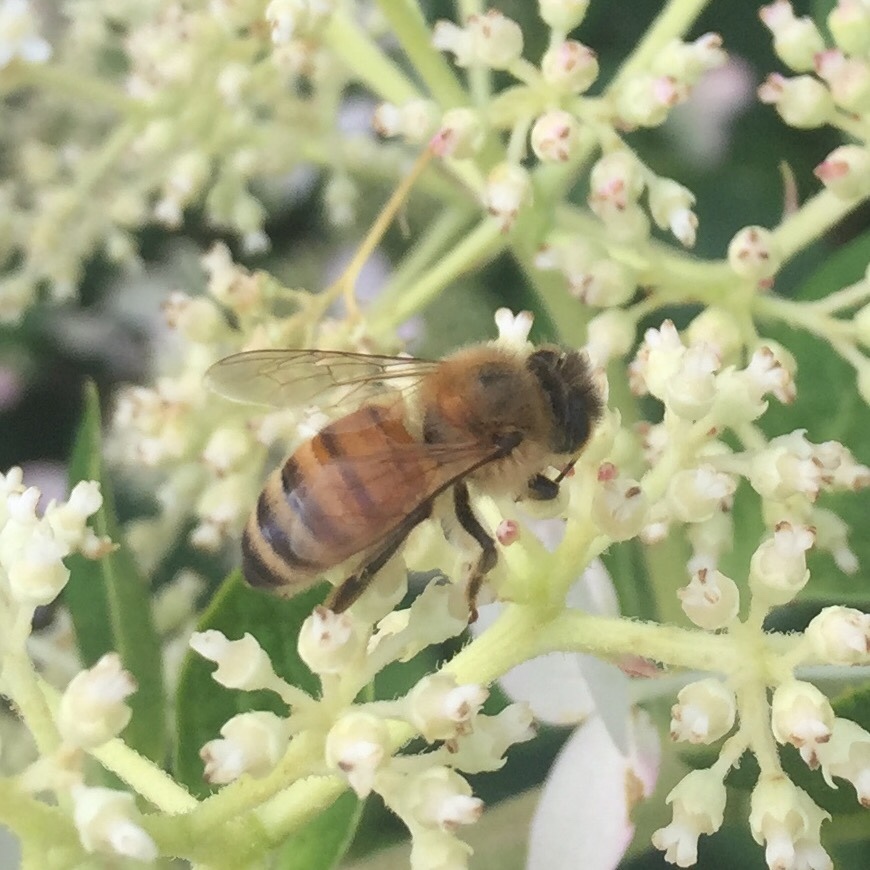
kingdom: Animalia
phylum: Arthropoda
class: Insecta
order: Hymenoptera
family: Apidae
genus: Apis
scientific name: Apis mellifera
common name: Honey bee
